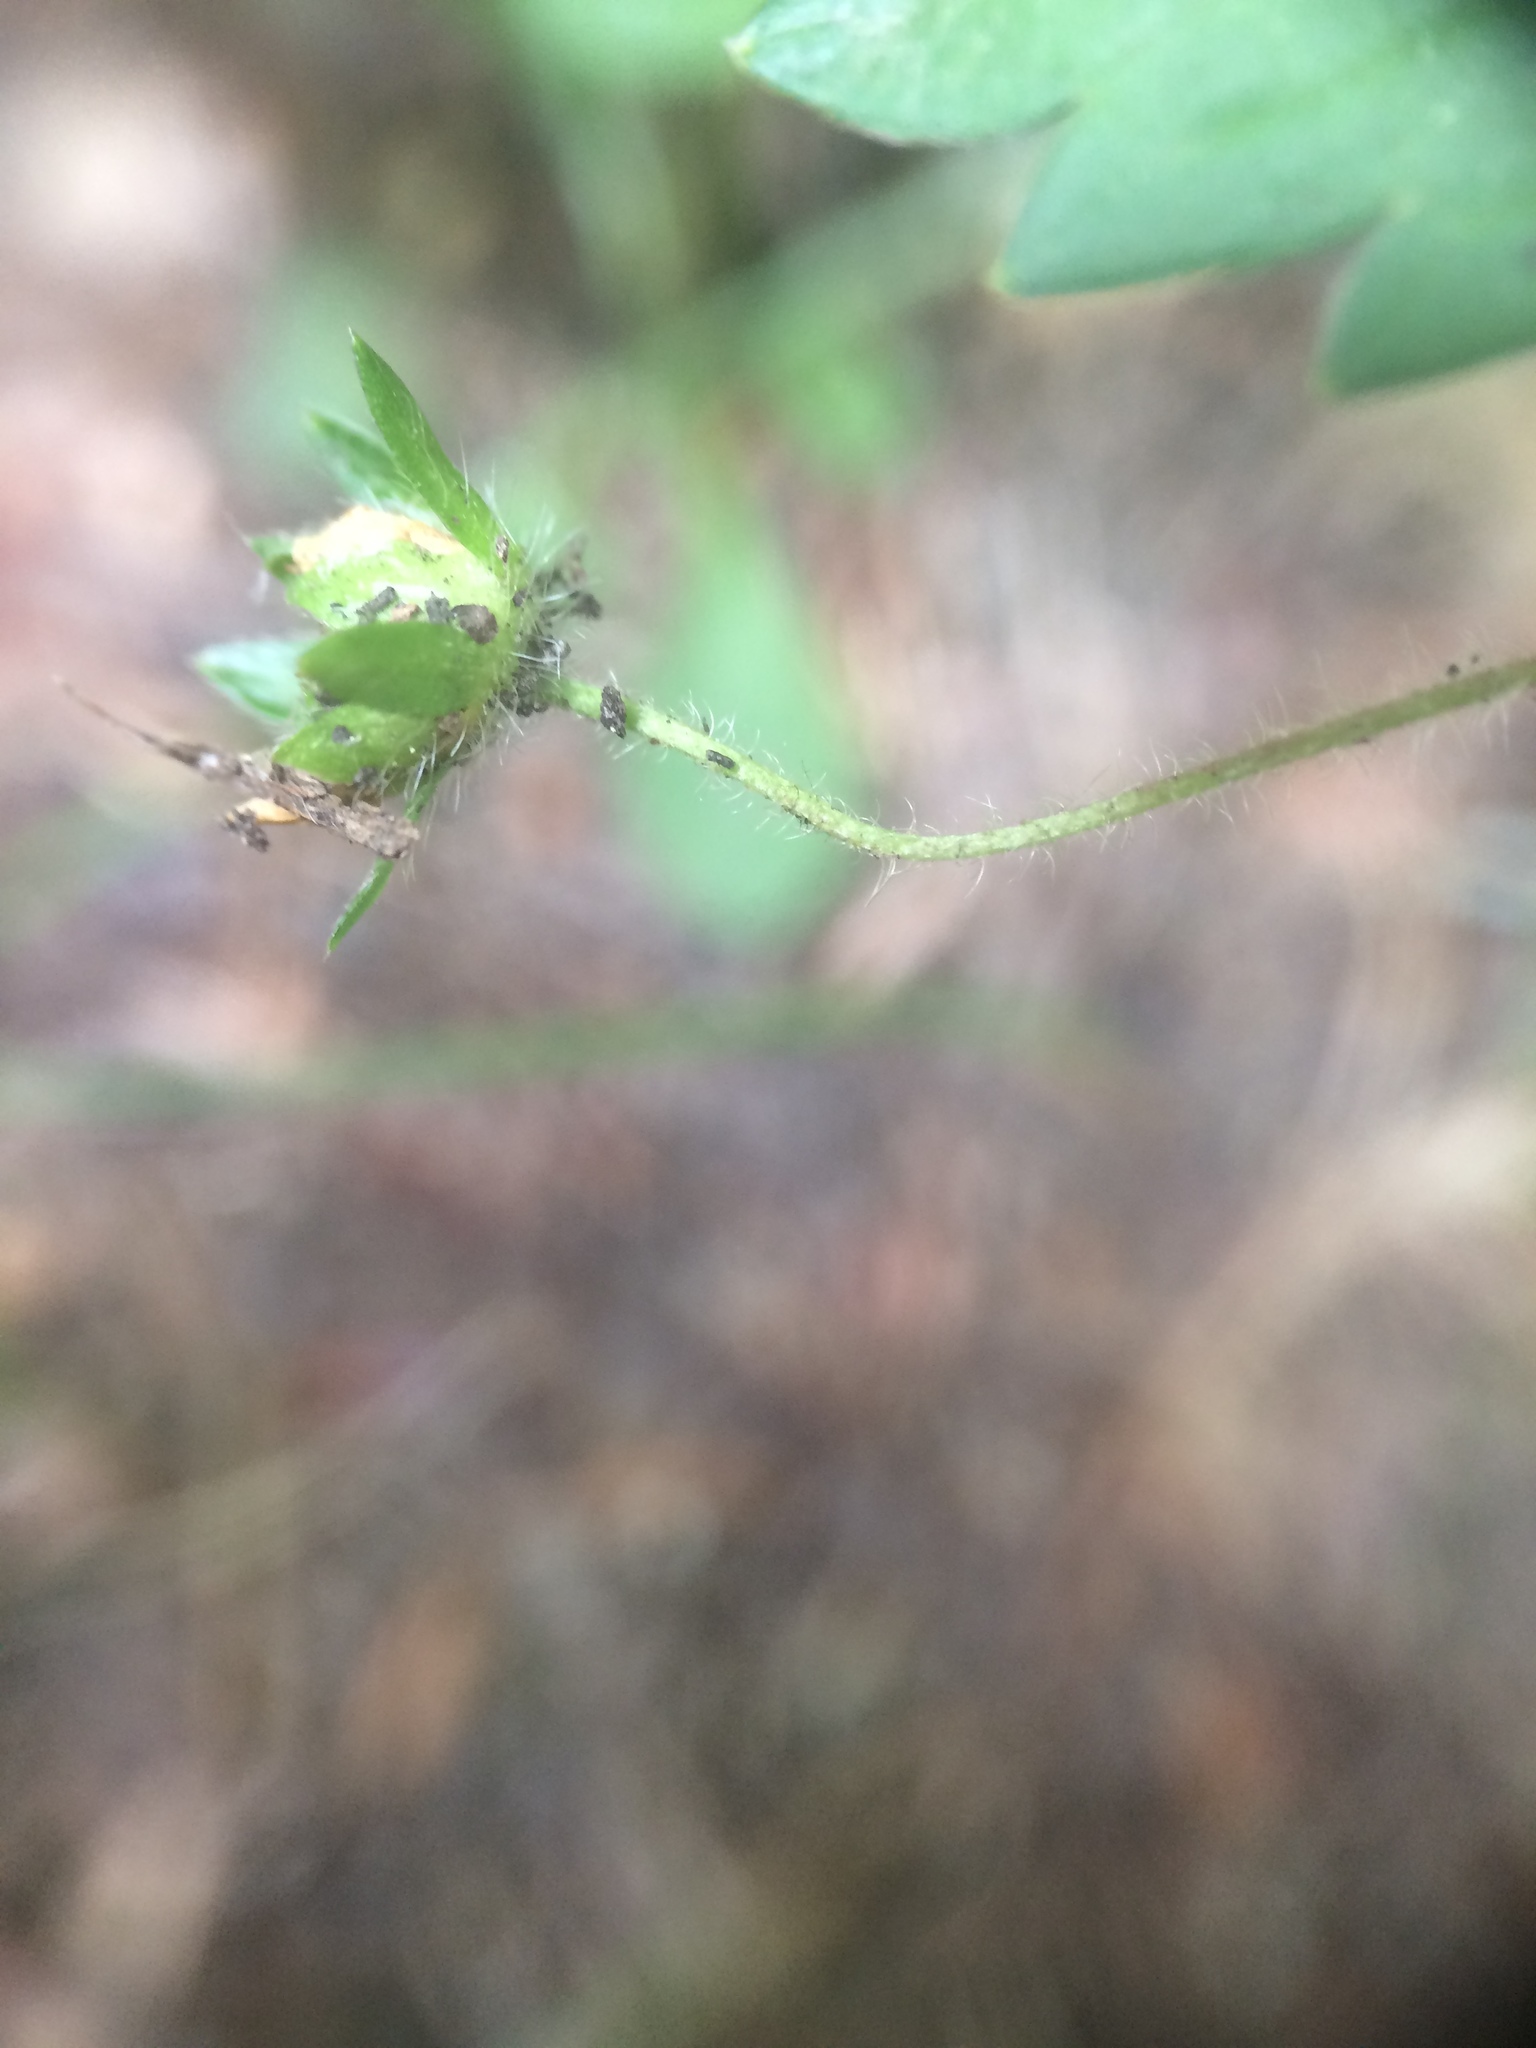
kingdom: Plantae
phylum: Tracheophyta
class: Magnoliopsida
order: Rosales
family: Rosaceae
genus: Potentilla
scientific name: Potentilla simplex
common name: Old field cinquefoil
